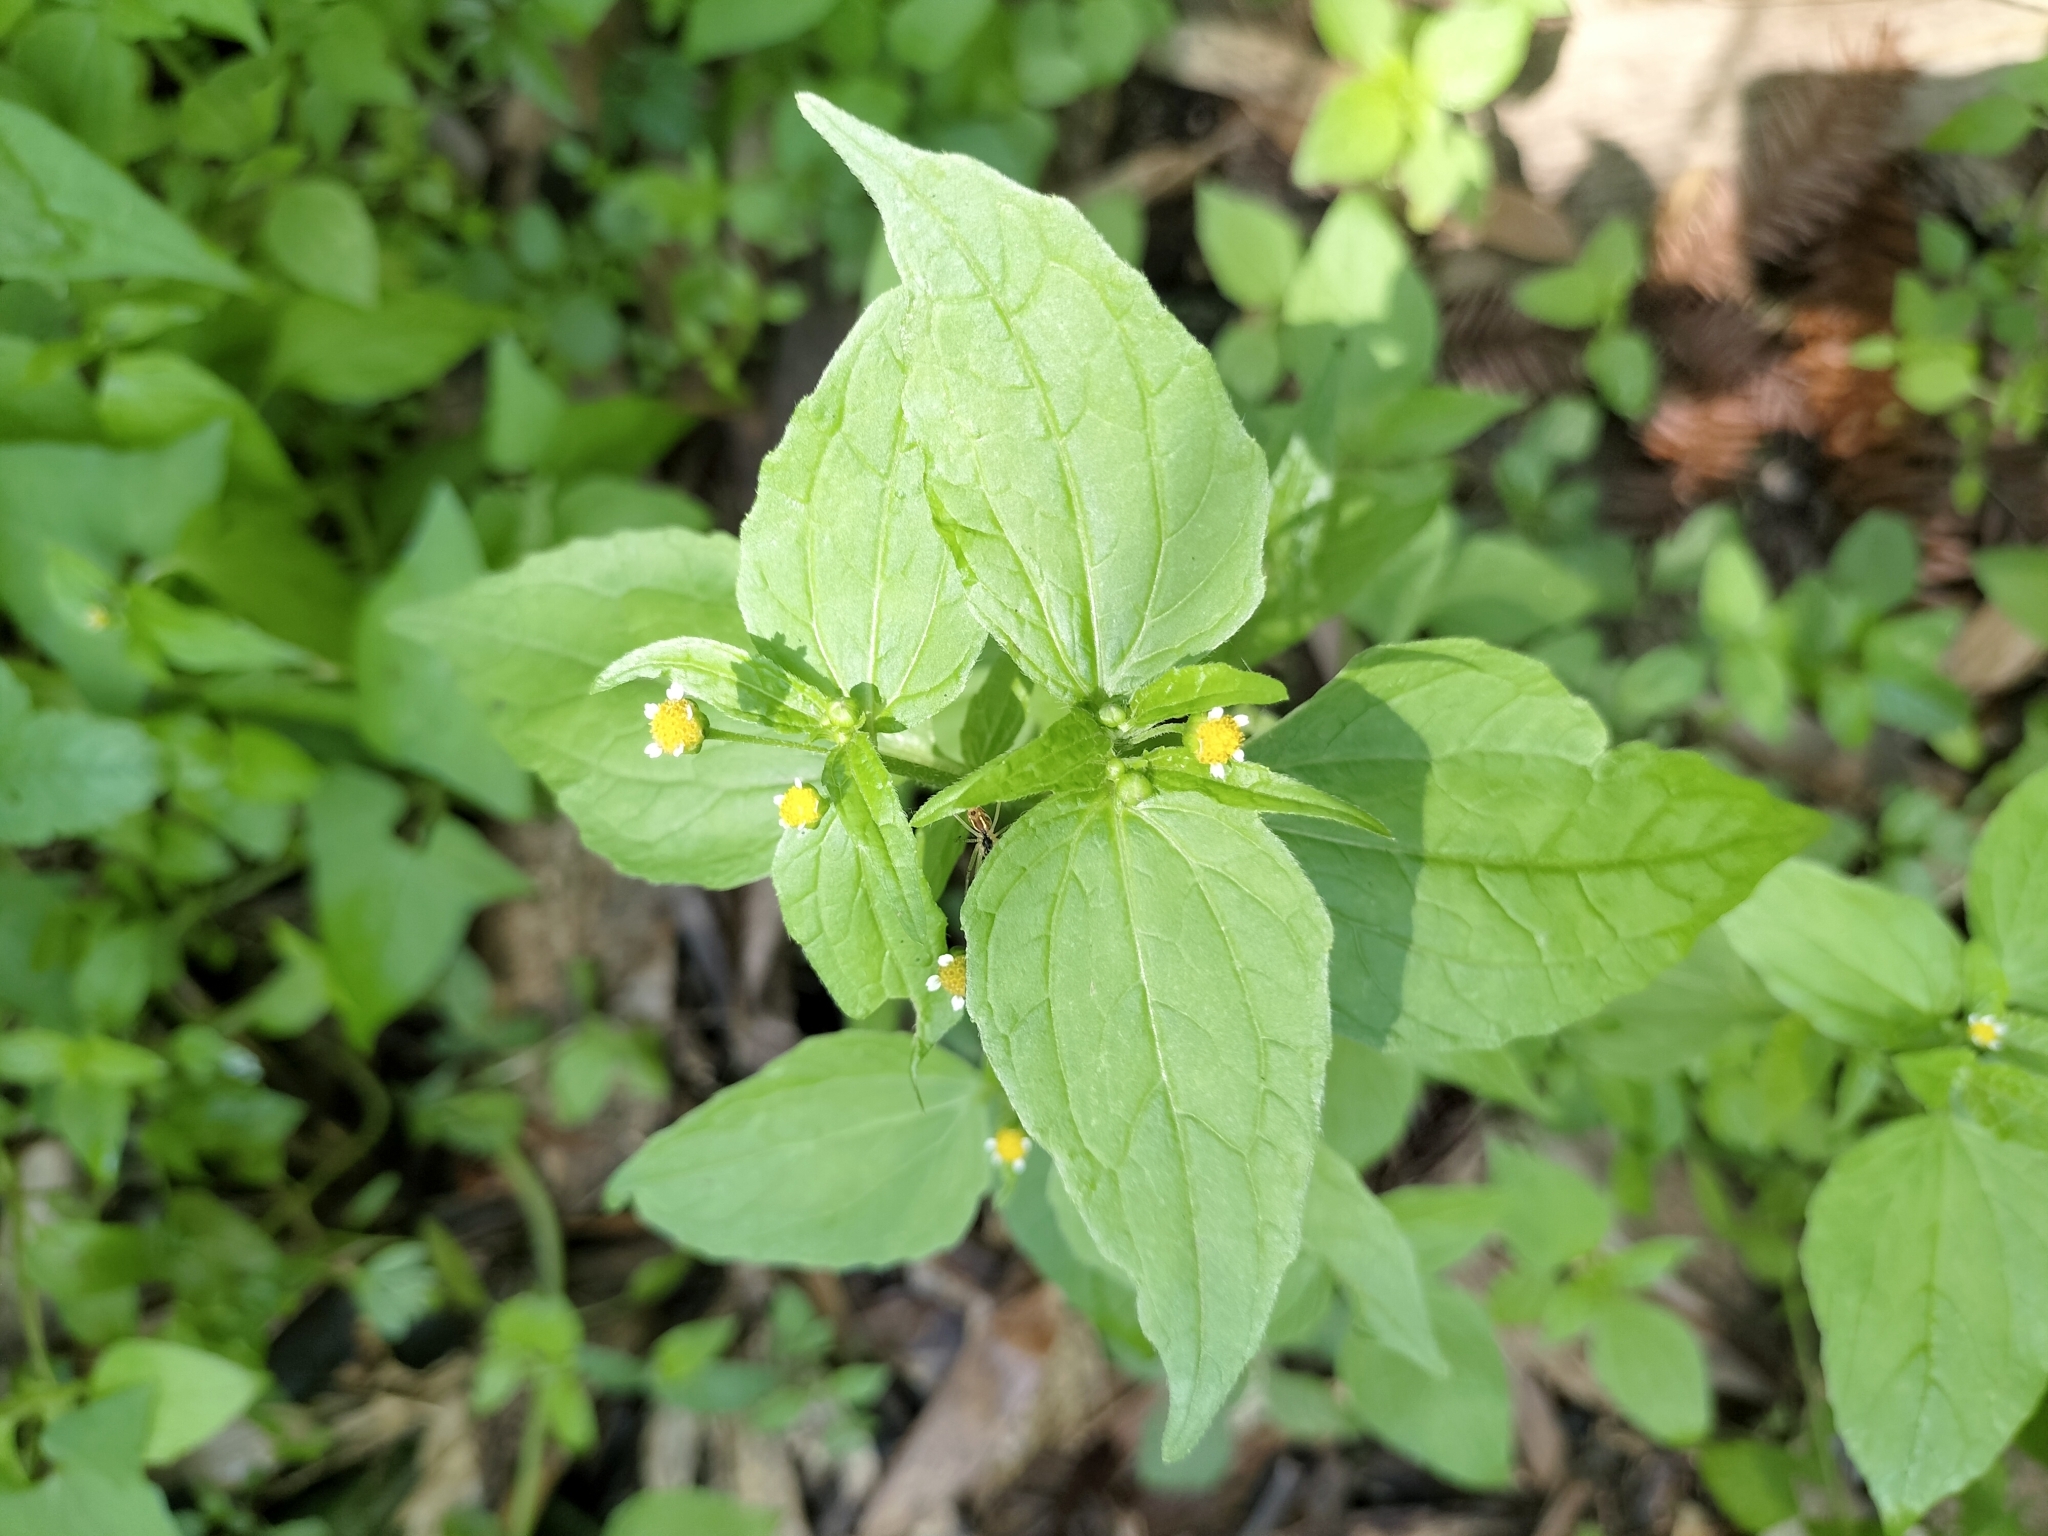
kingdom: Plantae
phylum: Tracheophyta
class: Magnoliopsida
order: Asterales
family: Asteraceae
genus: Galinsoga
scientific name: Galinsoga parviflora
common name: Gallant soldier
